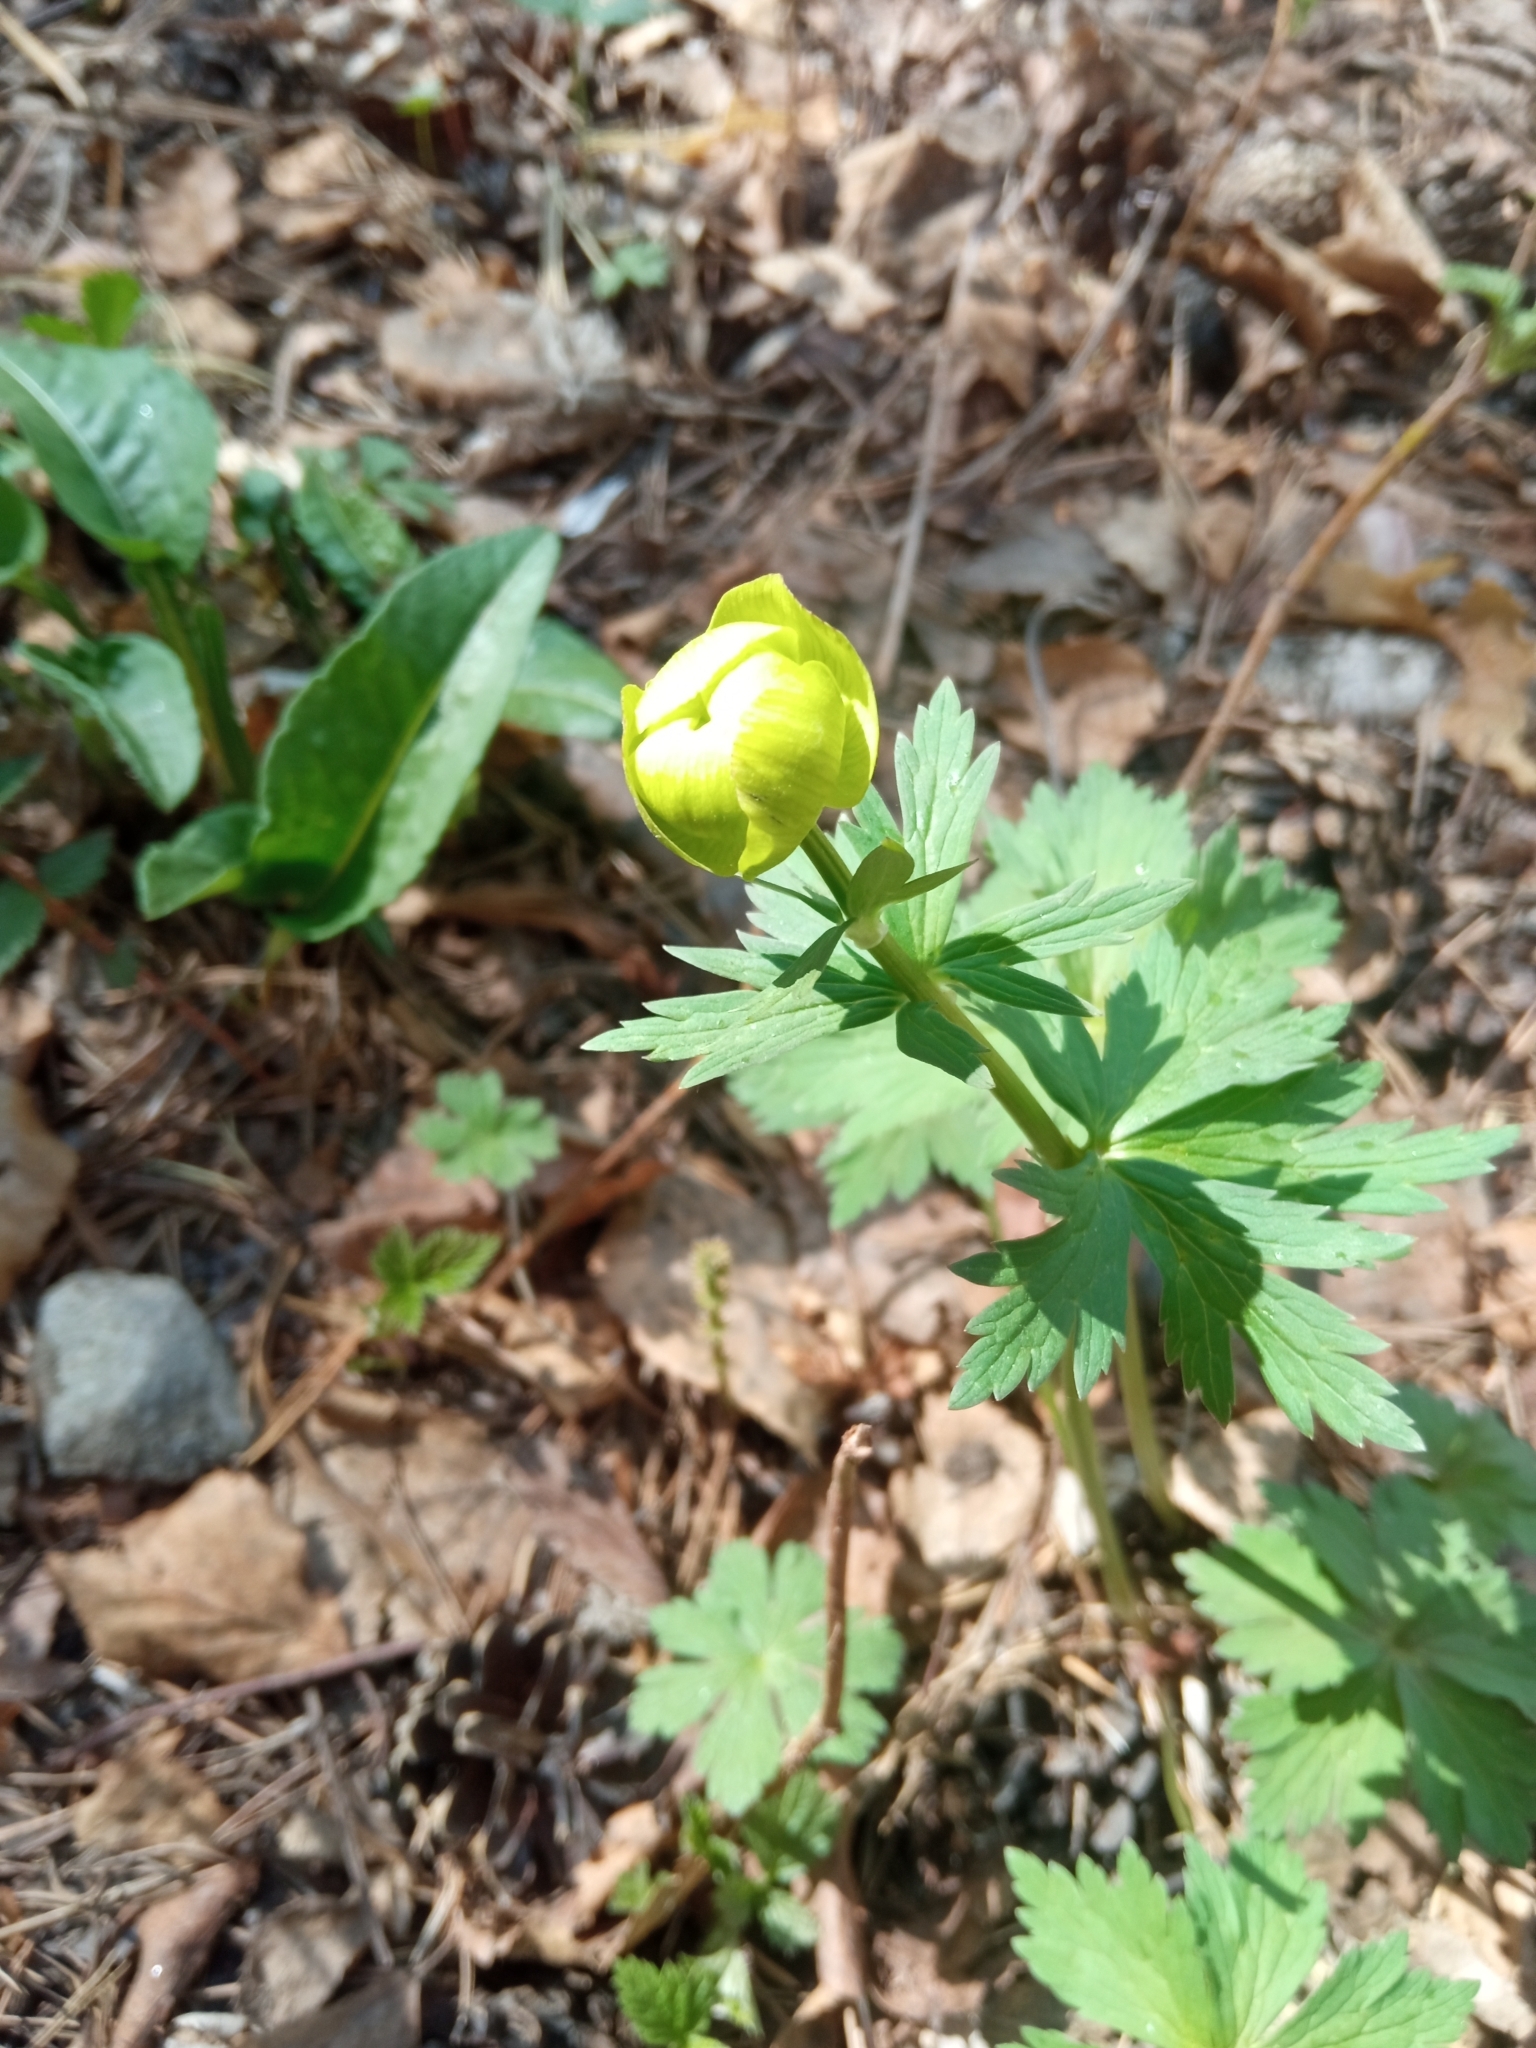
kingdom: Plantae
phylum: Tracheophyta
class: Magnoliopsida
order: Ranunculales
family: Ranunculaceae
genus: Trollius
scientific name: Trollius europaeus
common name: European globeflower
